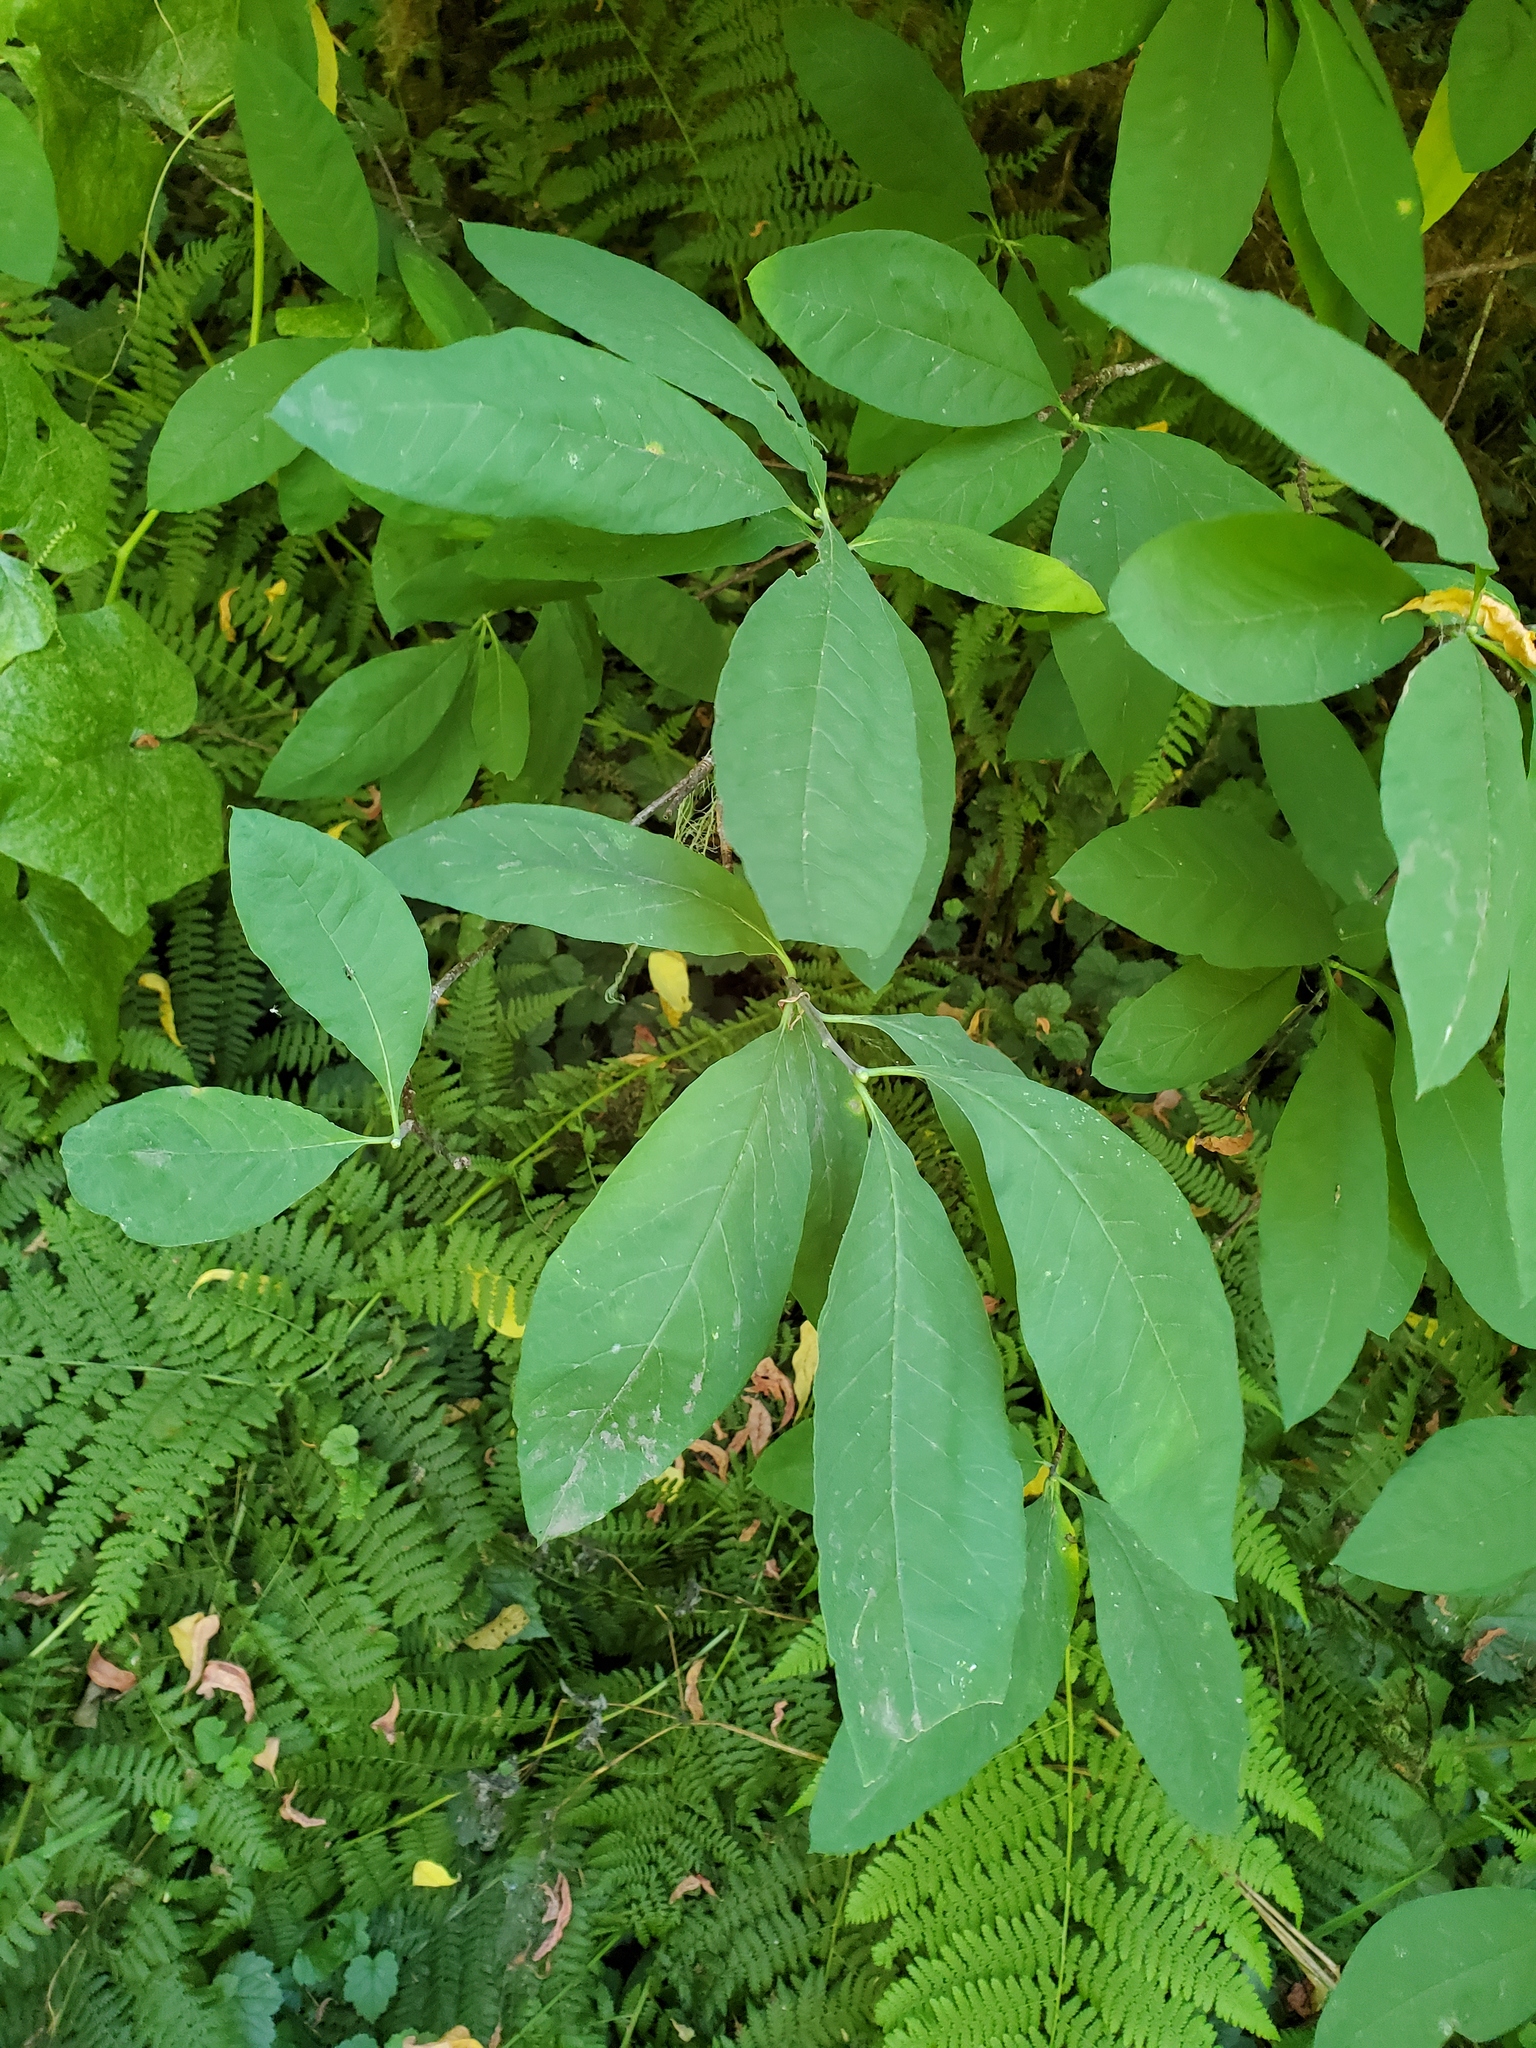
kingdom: Plantae
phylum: Tracheophyta
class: Magnoliopsida
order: Rosales
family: Rosaceae
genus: Oemleria
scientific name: Oemleria cerasiformis
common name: Osoberry
